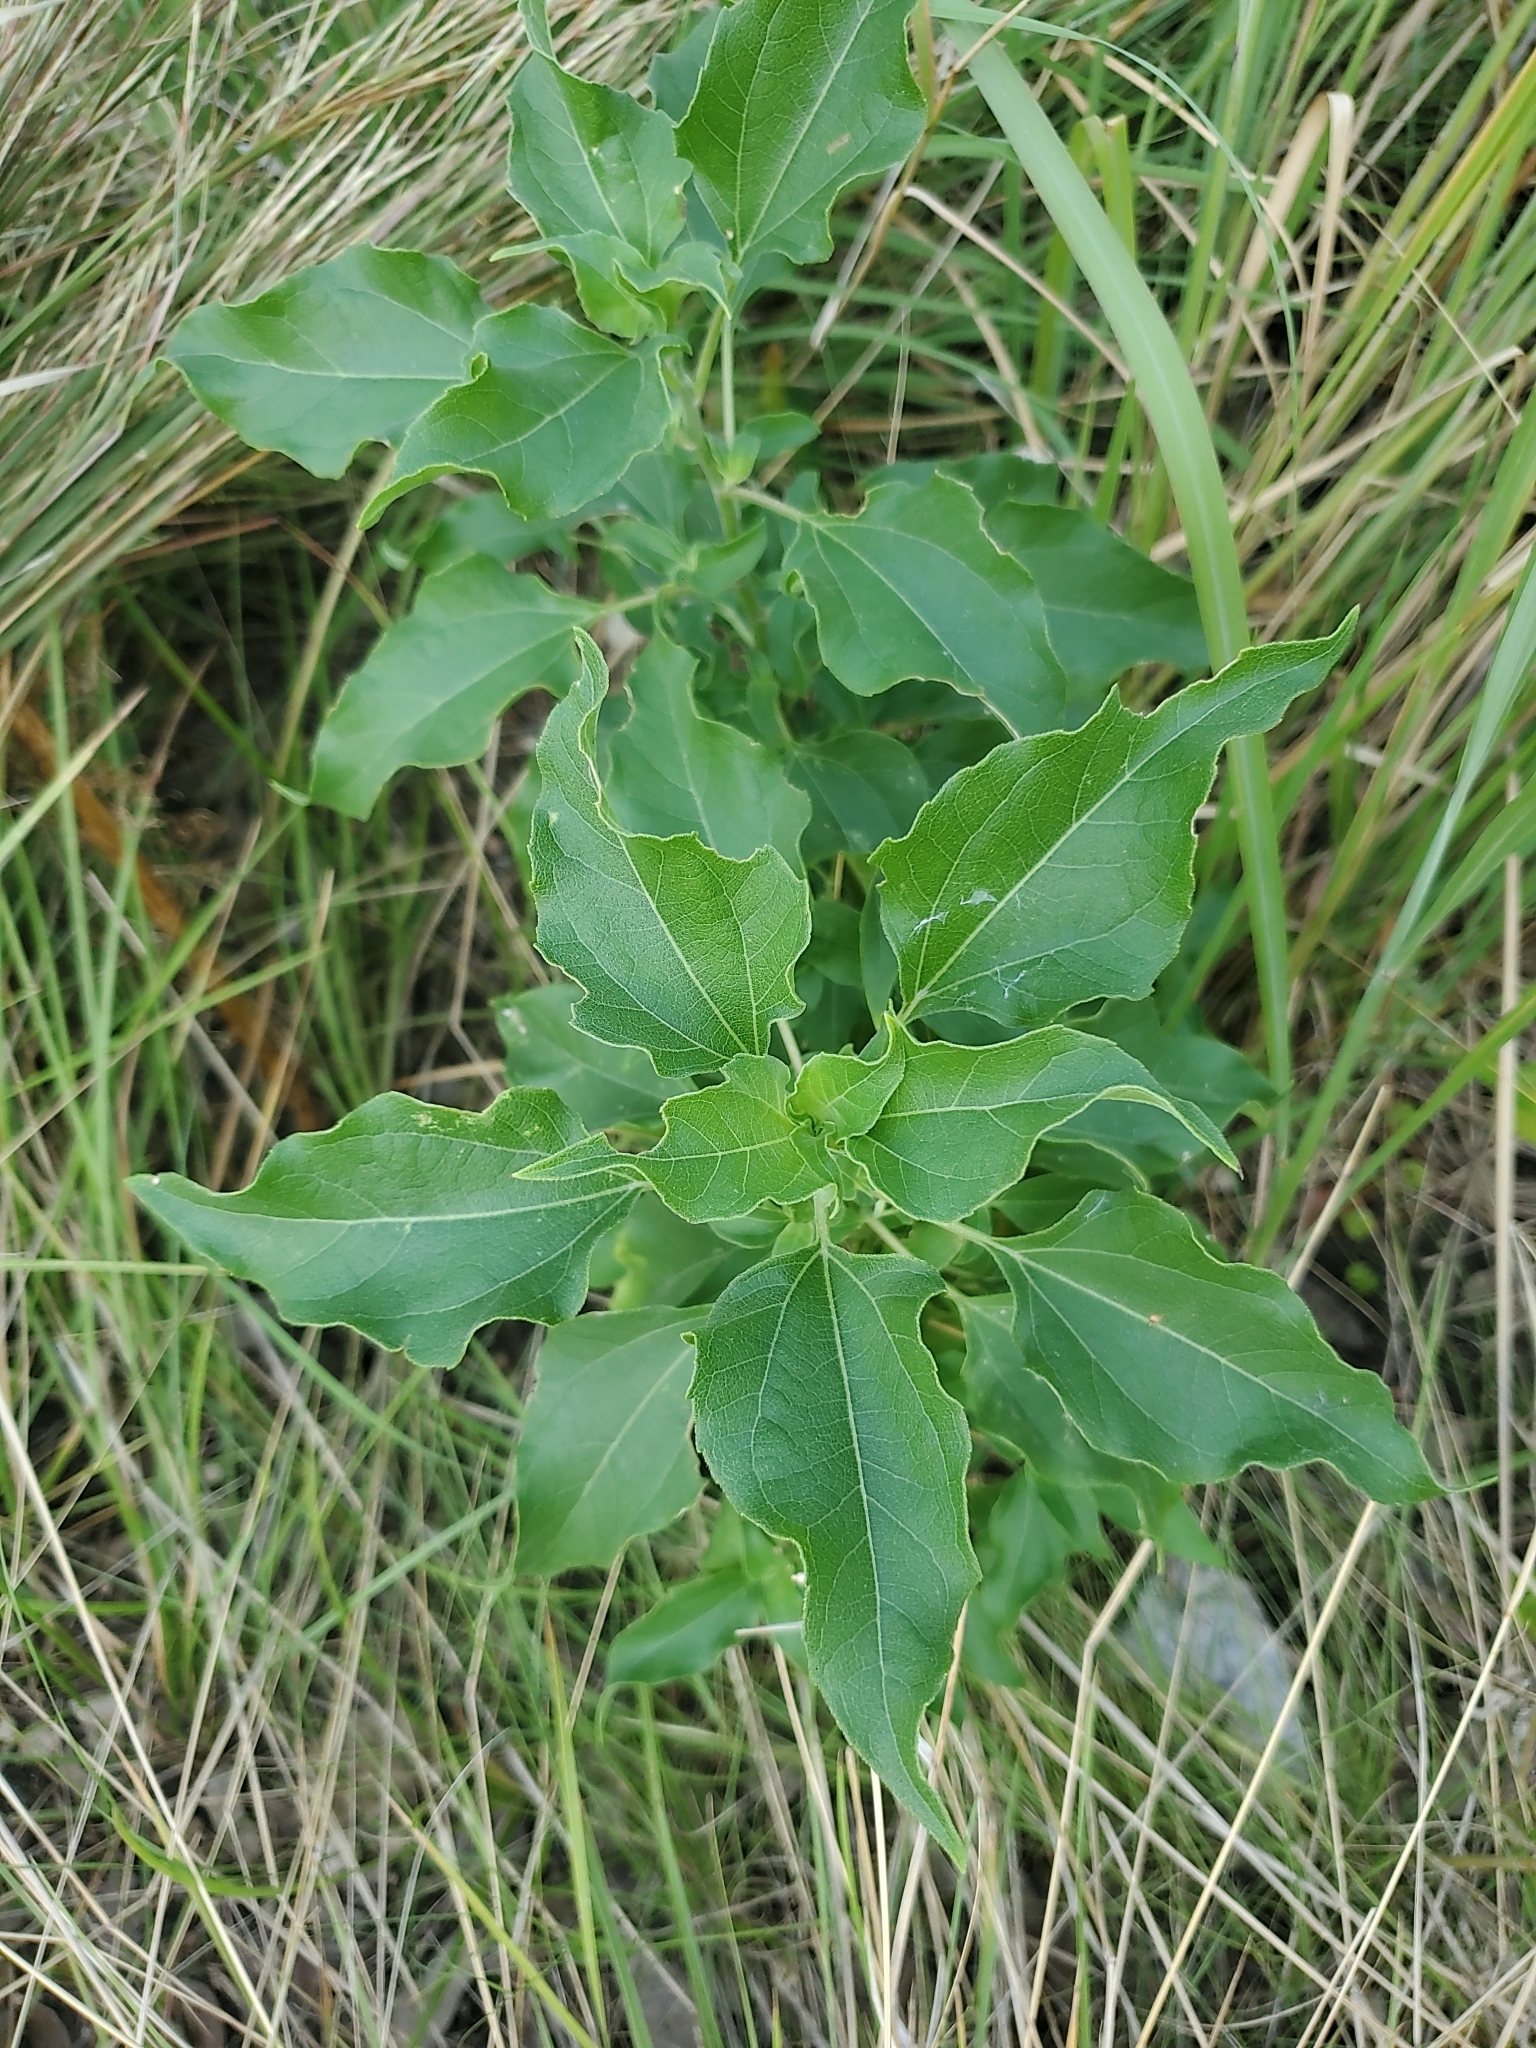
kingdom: Plantae
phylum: Tracheophyta
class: Magnoliopsida
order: Asterales
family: Asteraceae
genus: Helianthus
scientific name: Helianthus debilis
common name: Weak sunflower
